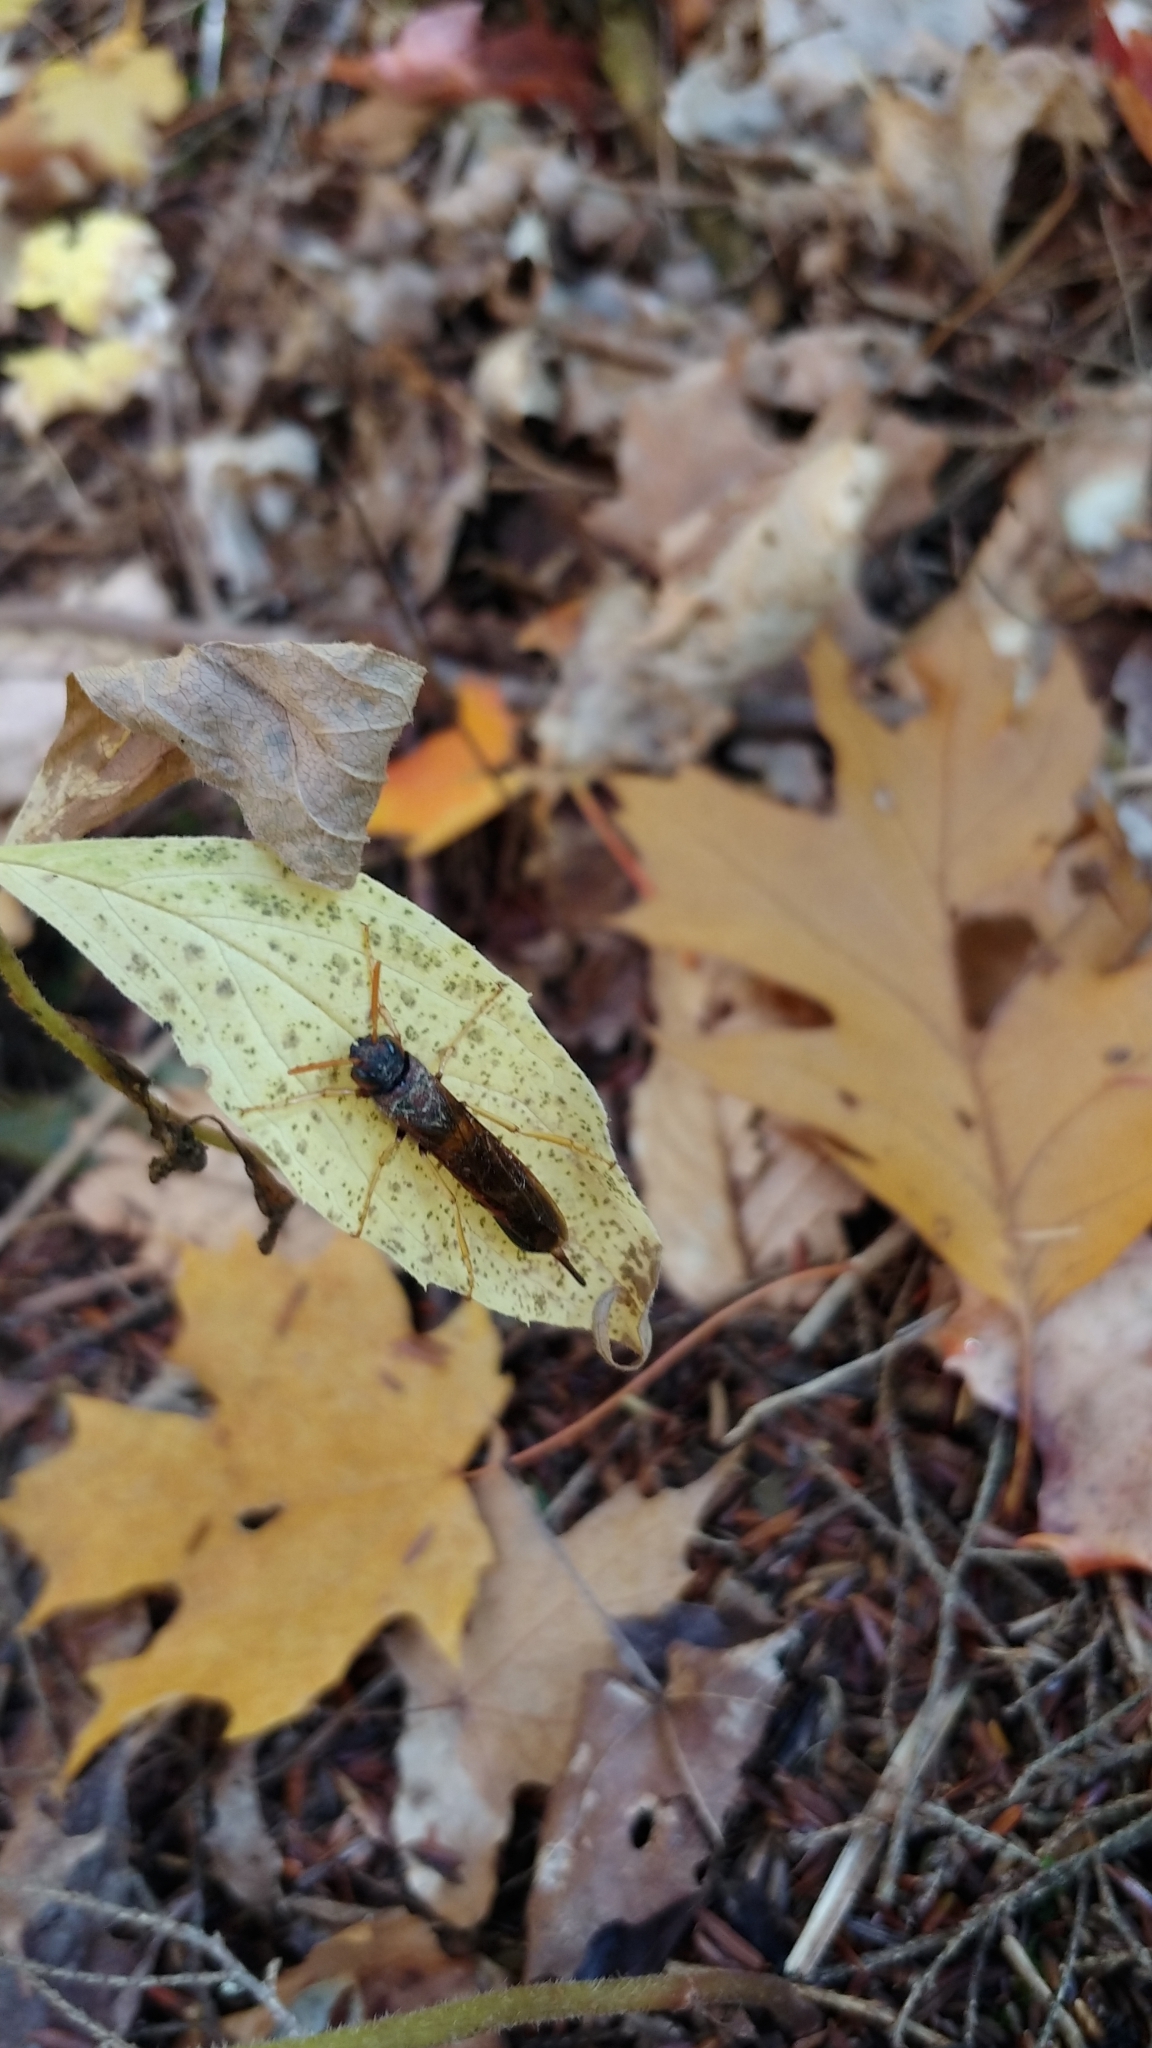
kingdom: Animalia
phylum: Arthropoda
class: Insecta
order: Hymenoptera
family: Siricidae
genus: Tremex
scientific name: Tremex columba
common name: Wasp
